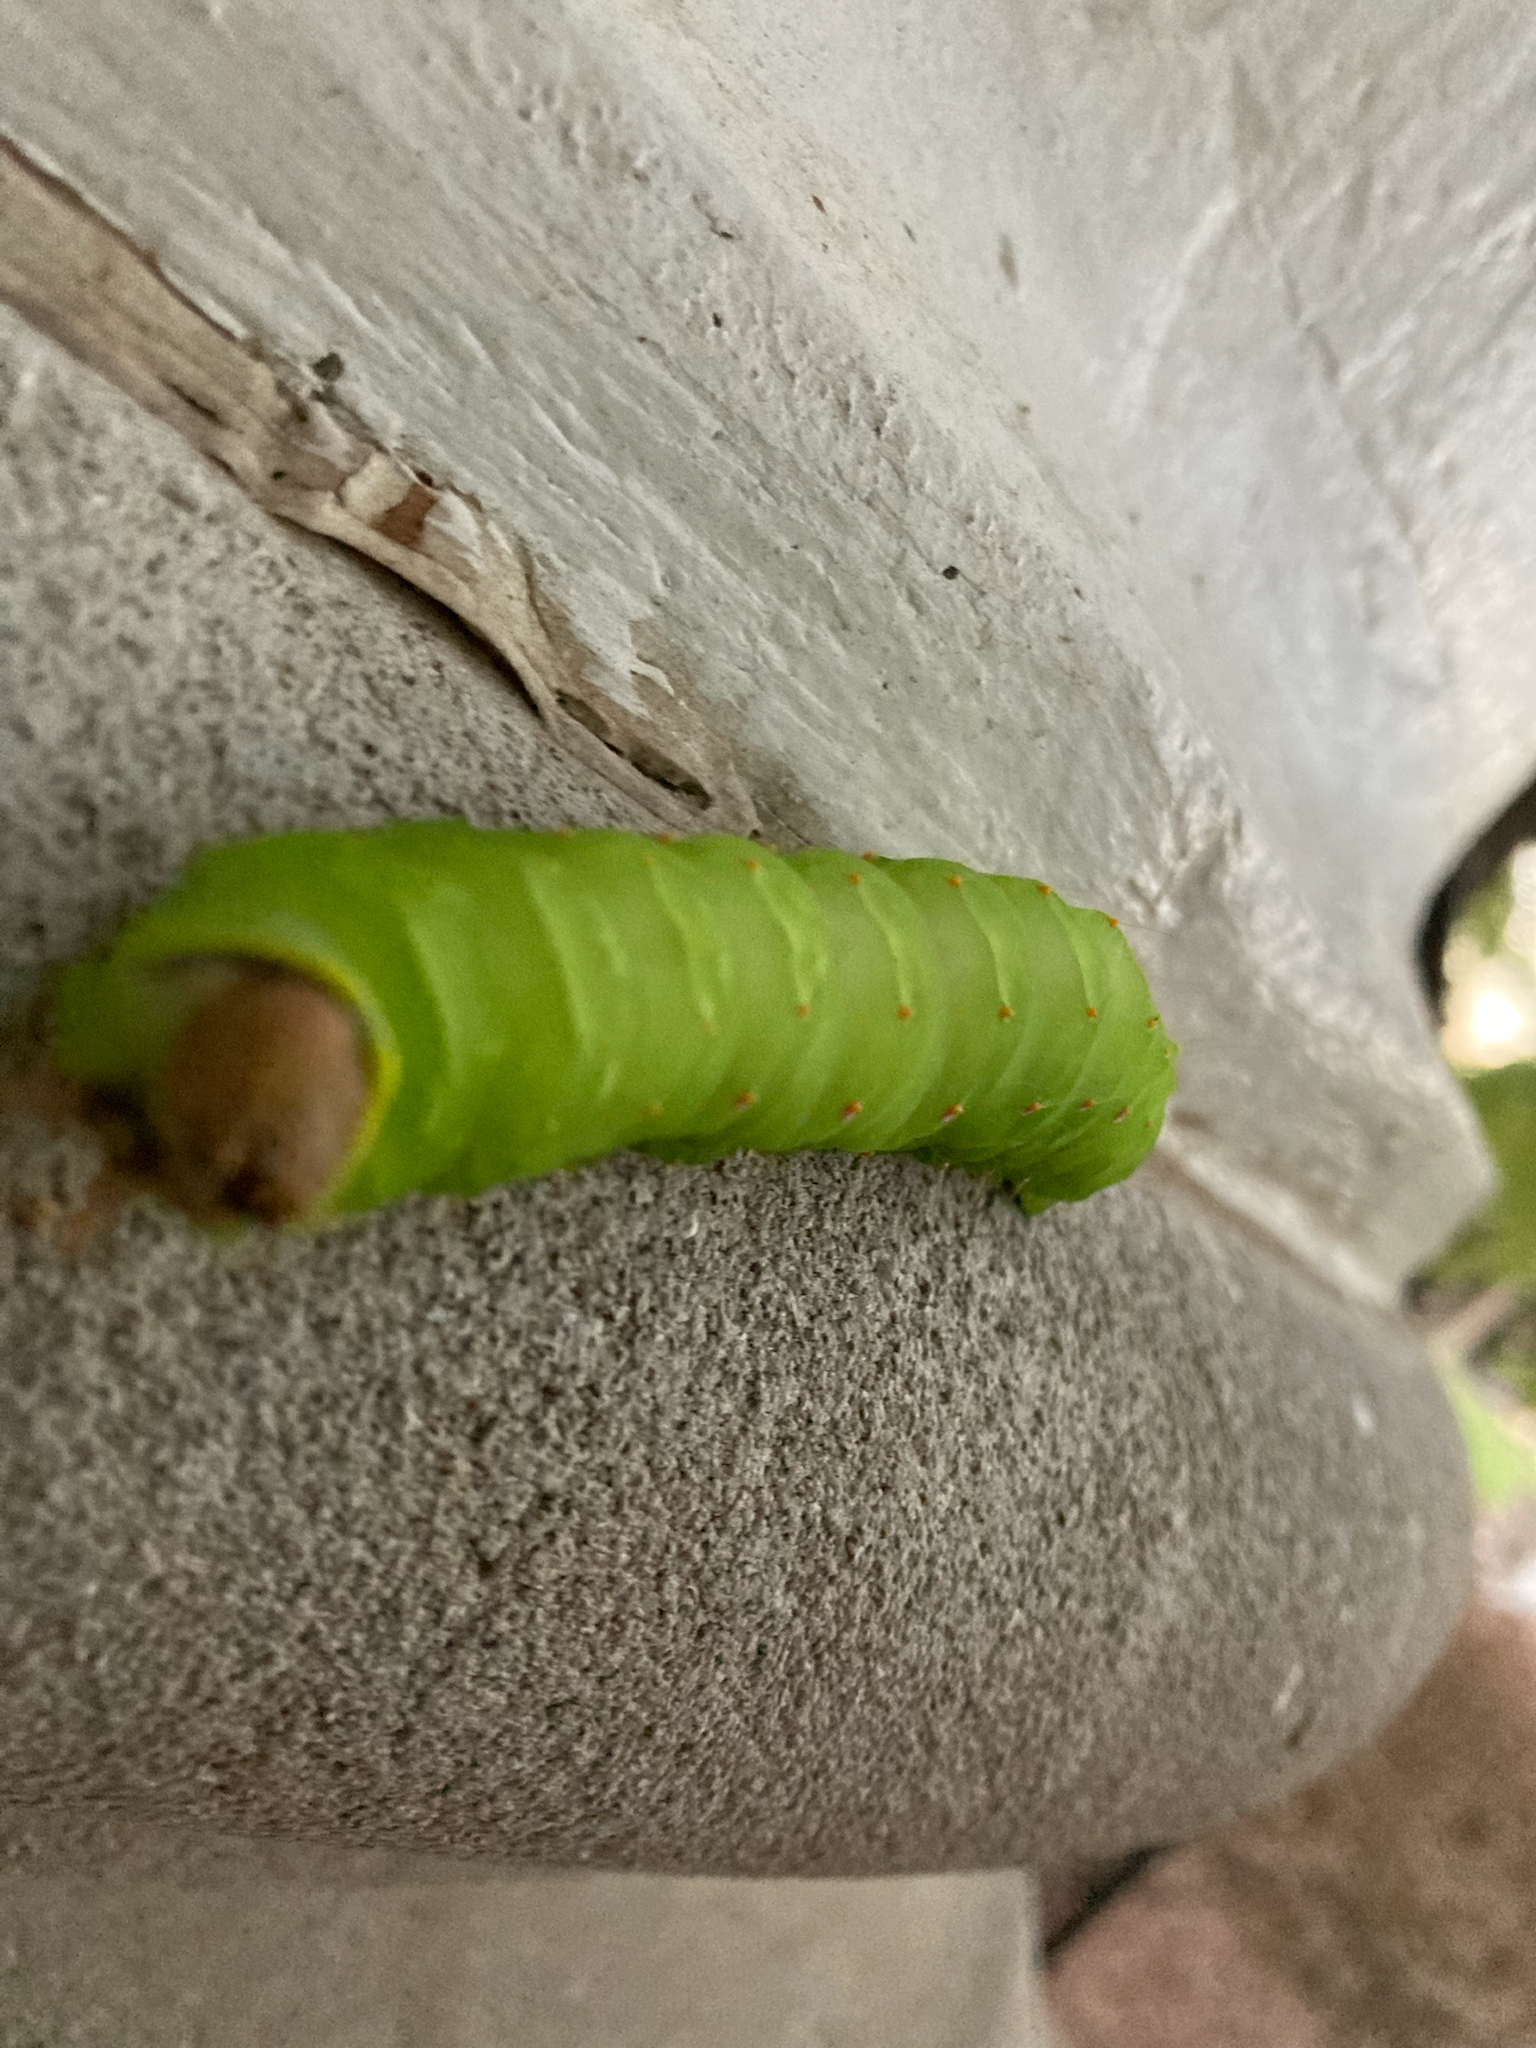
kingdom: Animalia
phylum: Arthropoda
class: Insecta
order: Lepidoptera
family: Saturniidae
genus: Antheraea
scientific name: Antheraea polyphemus
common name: Polyphemus moth
